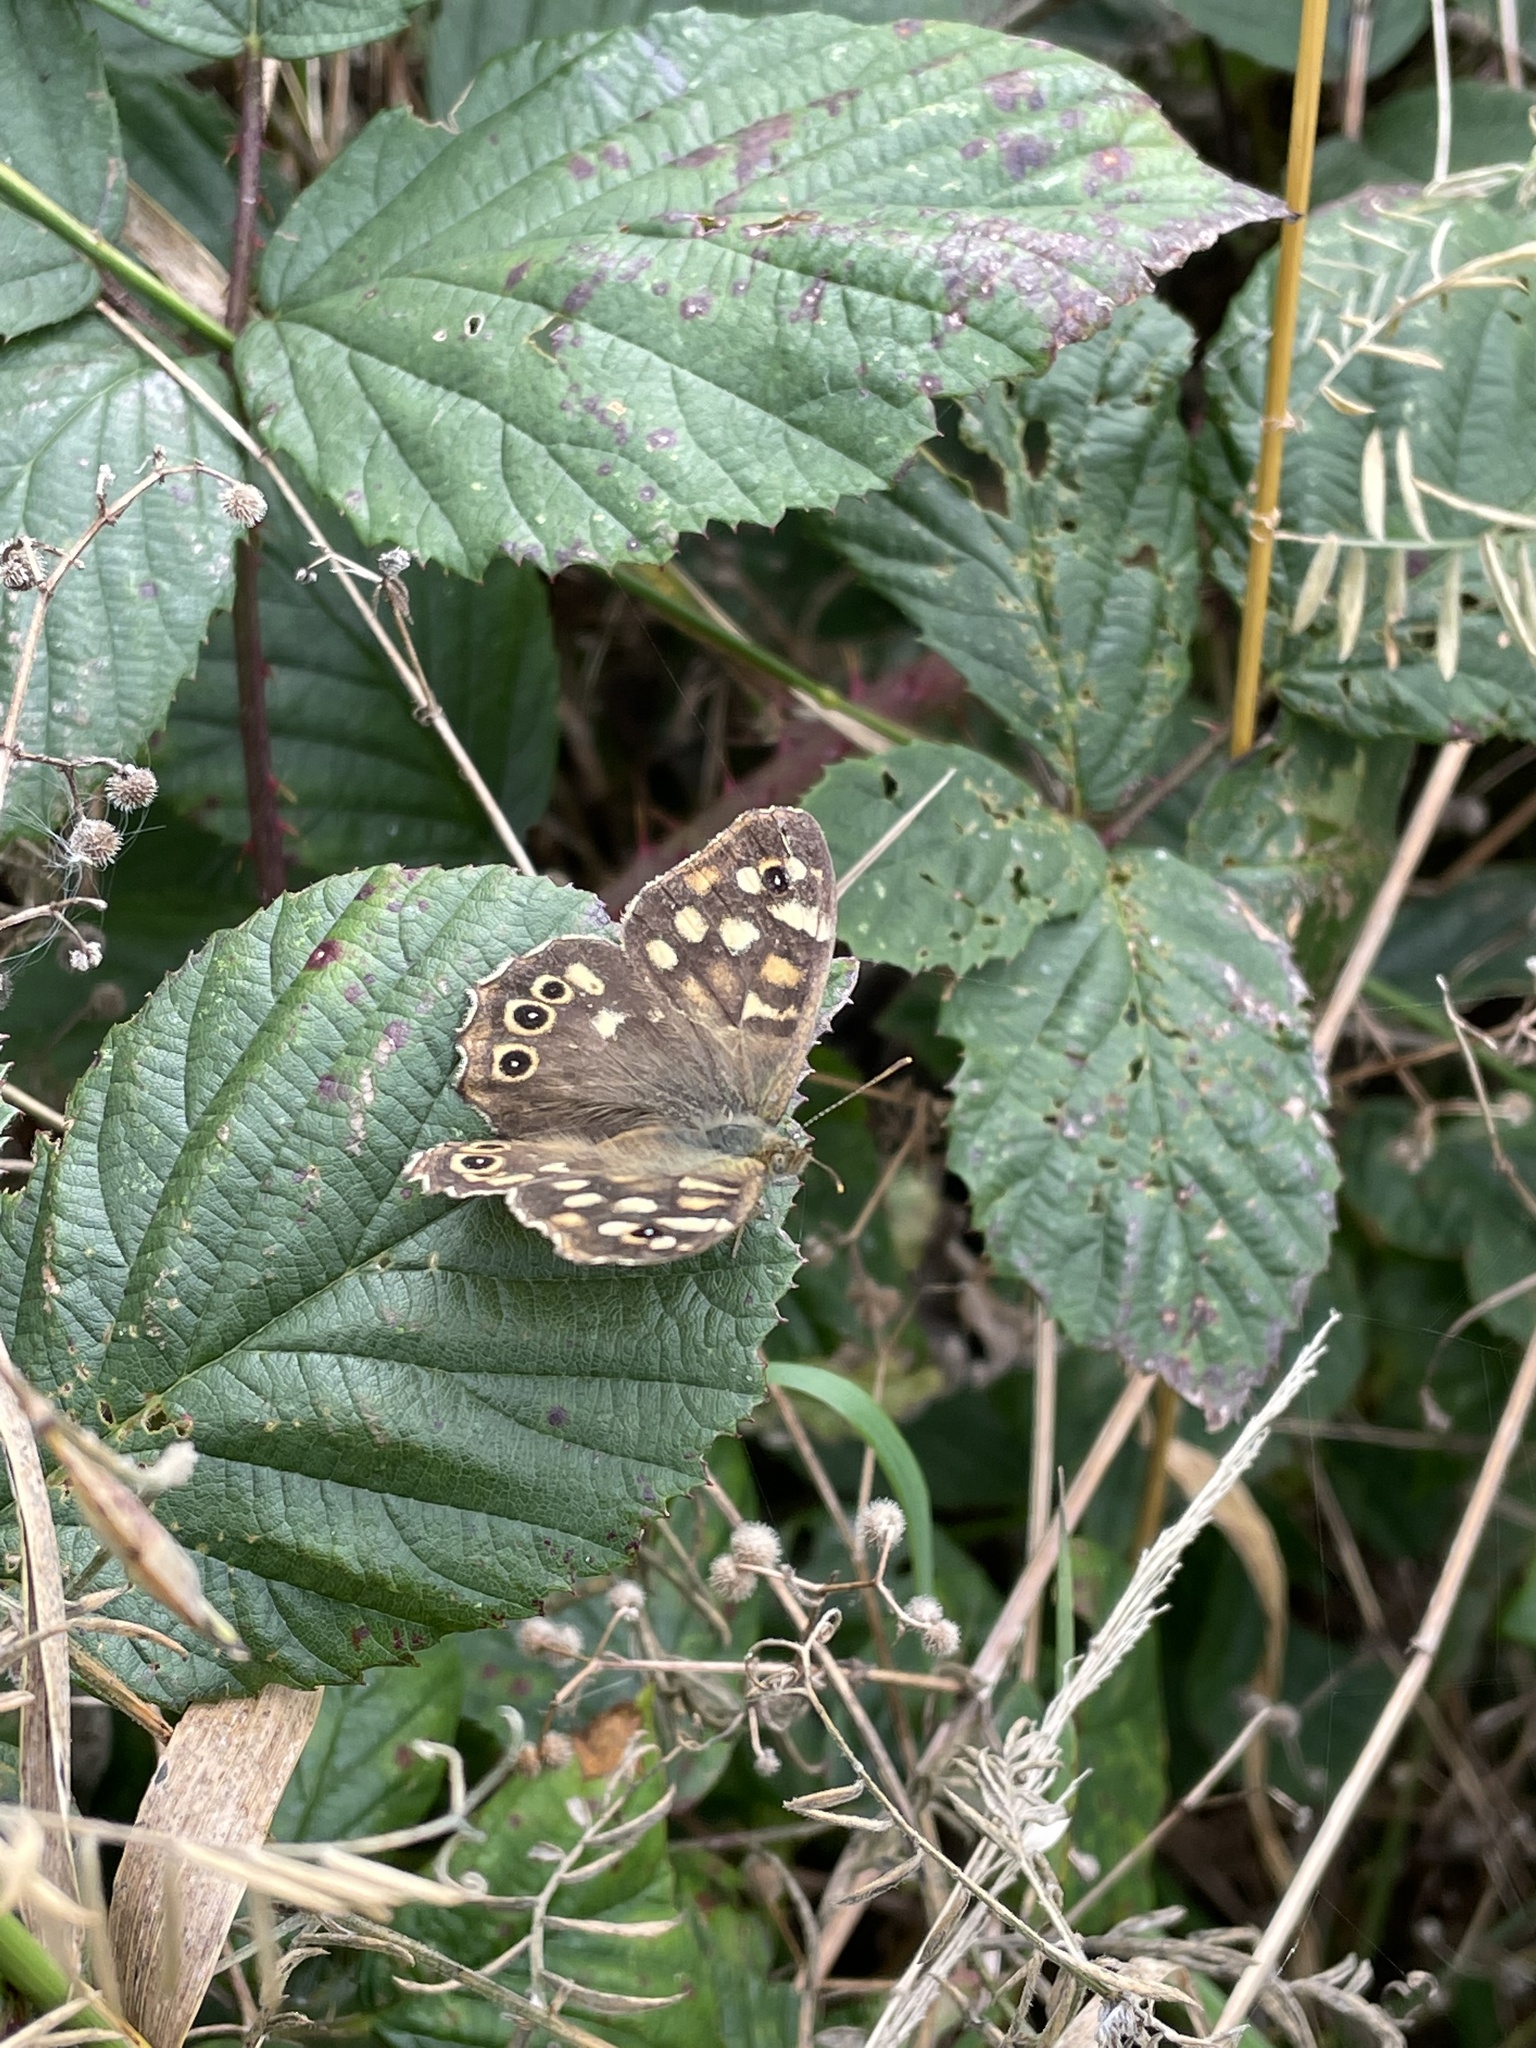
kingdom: Animalia
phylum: Arthropoda
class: Insecta
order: Lepidoptera
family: Nymphalidae
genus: Pararge
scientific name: Pararge aegeria
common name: Speckled wood
